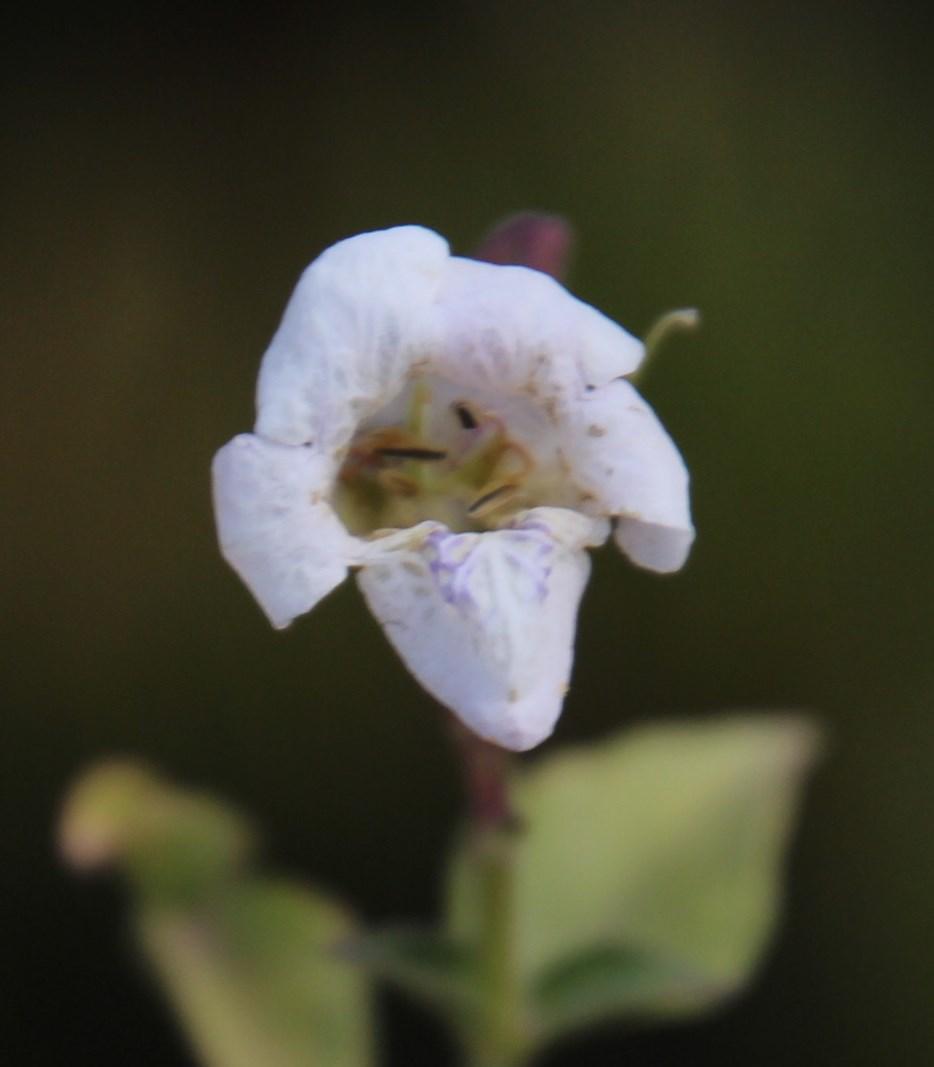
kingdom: Plantae
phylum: Tracheophyta
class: Magnoliopsida
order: Lamiales
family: Acanthaceae
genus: Asystasia
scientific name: Asystasia intrusa
